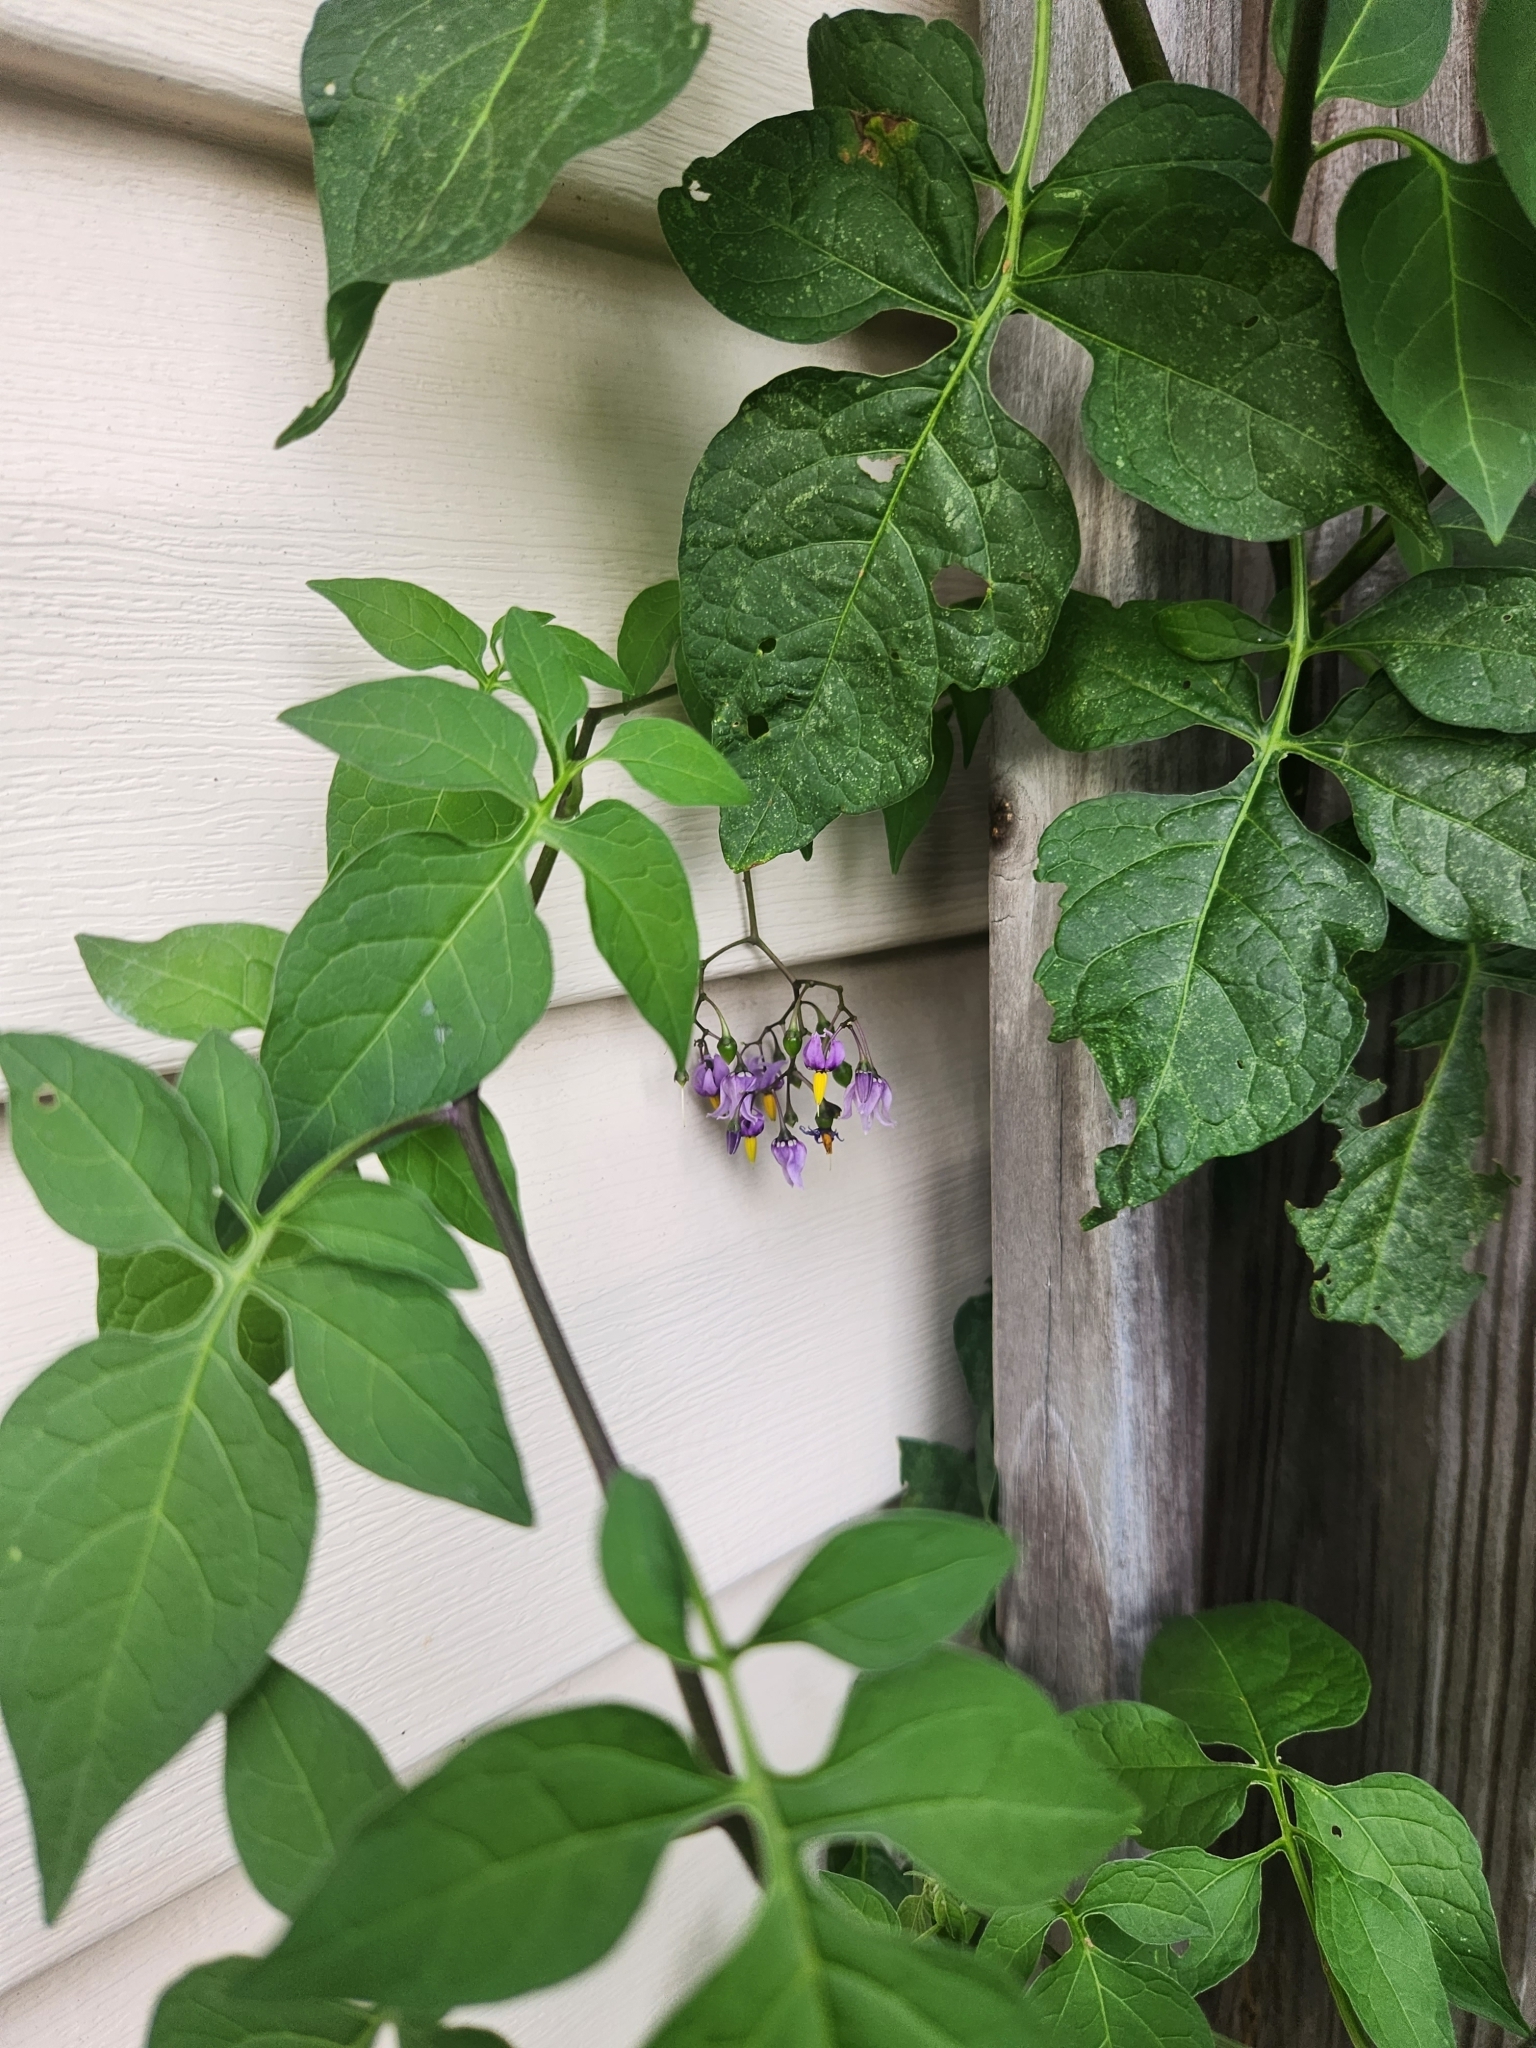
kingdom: Plantae
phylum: Tracheophyta
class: Magnoliopsida
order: Solanales
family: Solanaceae
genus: Solanum
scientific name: Solanum dulcamara
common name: Climbing nightshade
